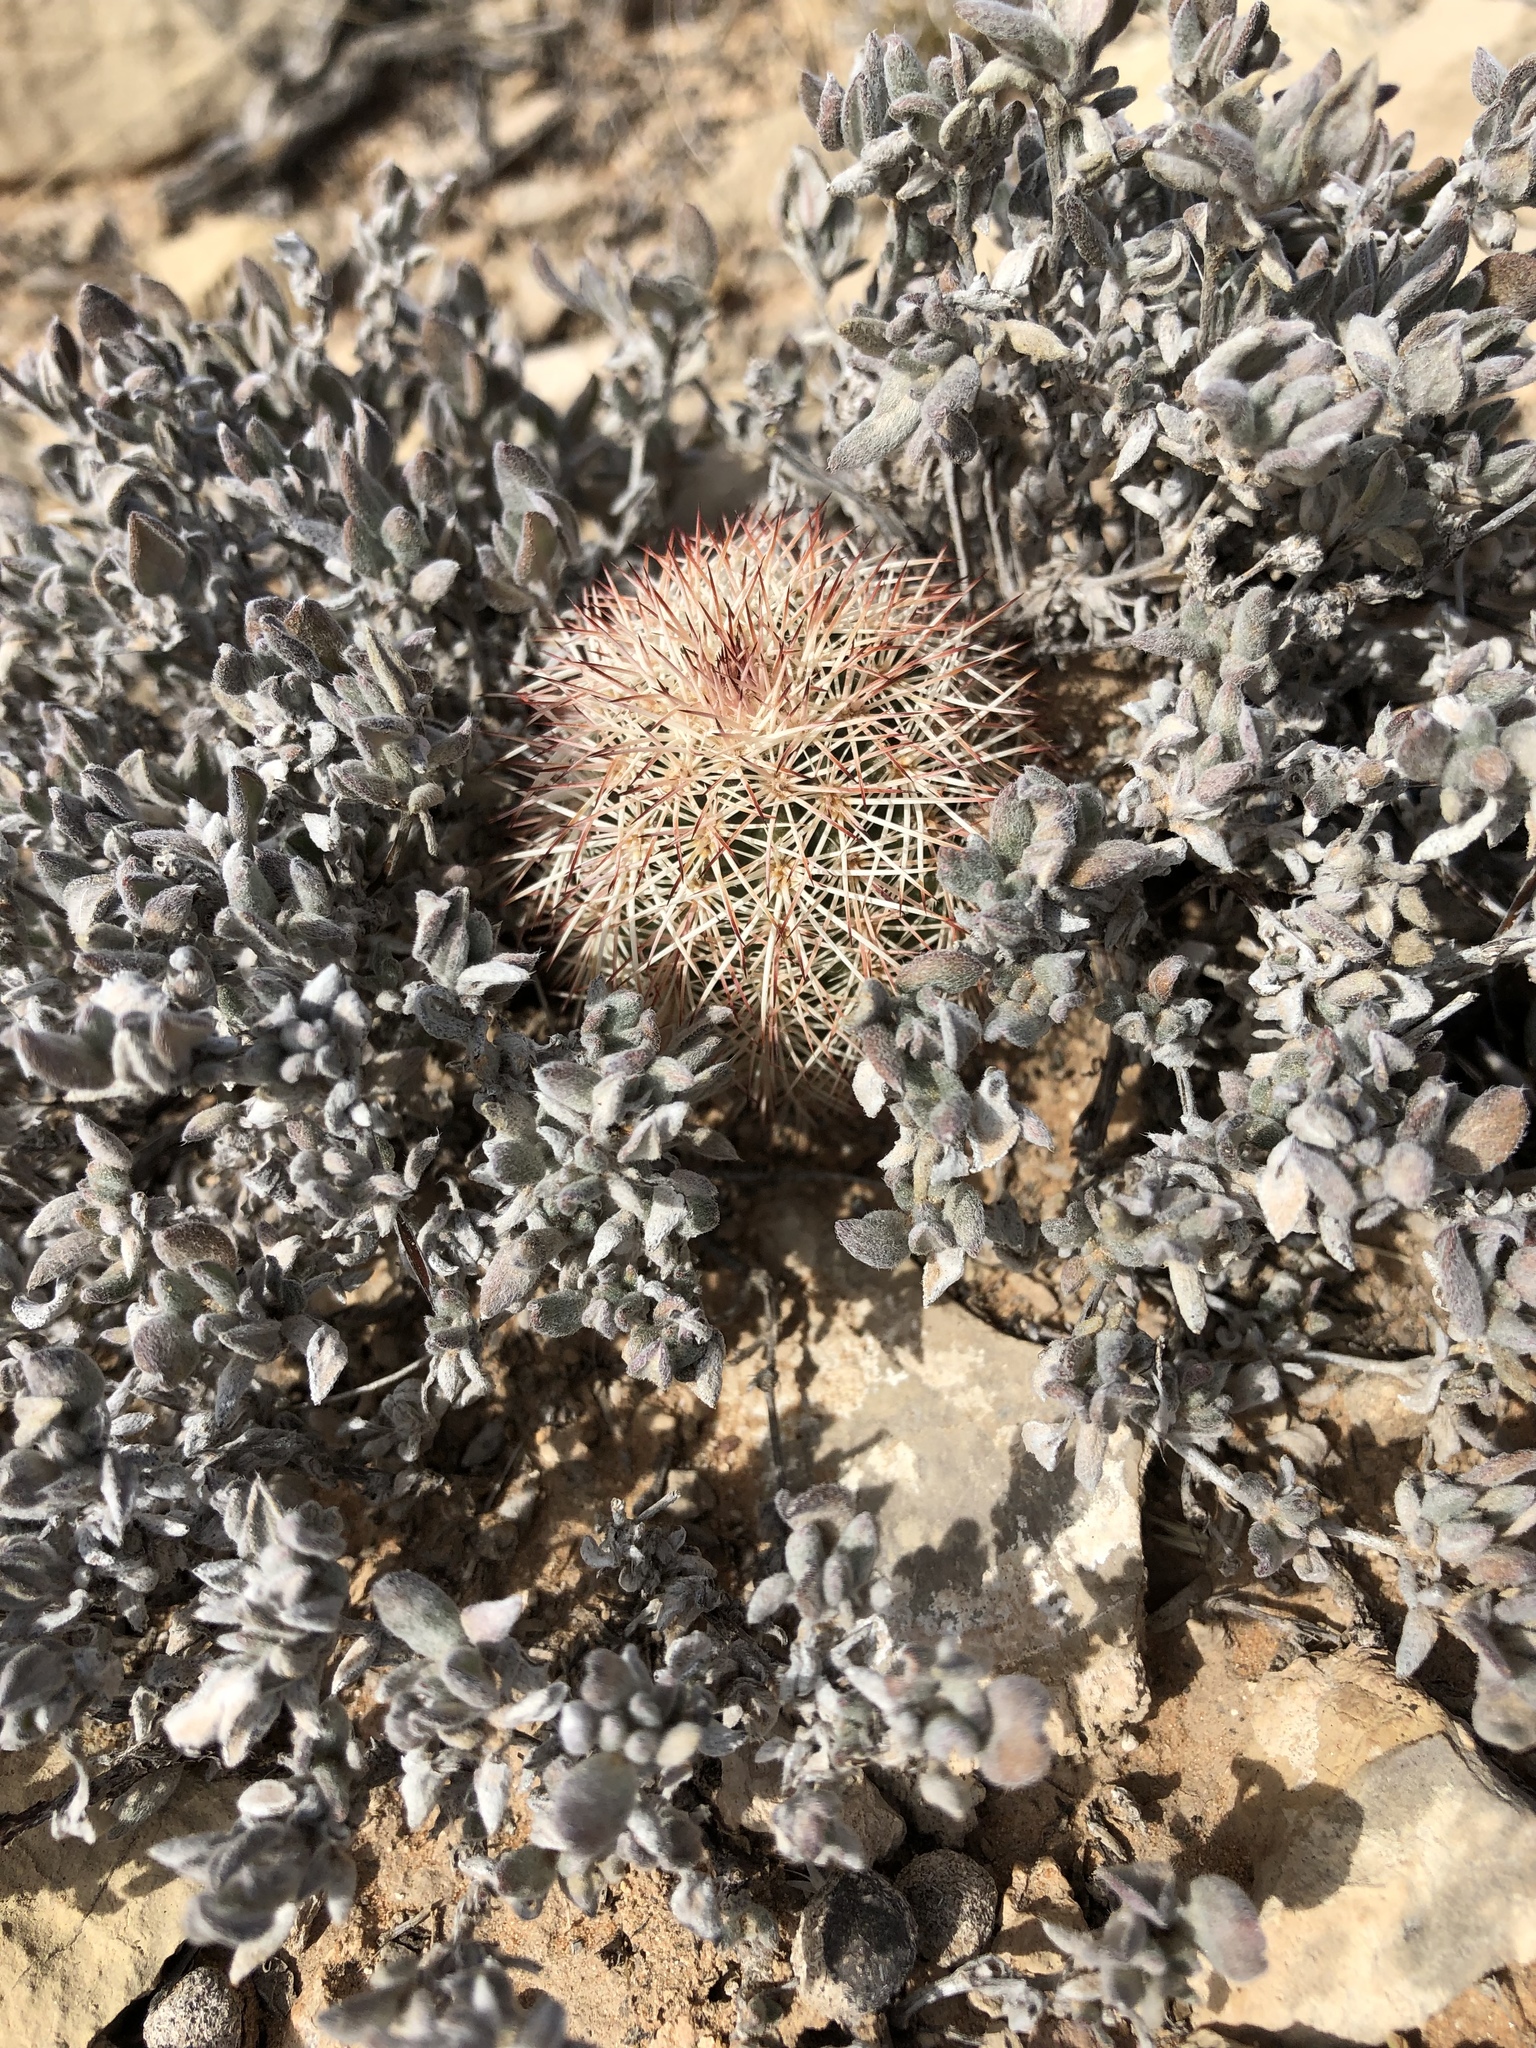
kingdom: Plantae
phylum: Tracheophyta
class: Magnoliopsida
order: Caryophyllales
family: Cactaceae
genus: Echinocereus
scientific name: Echinocereus dasyacanthus
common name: Spiny hedgehog cactus
